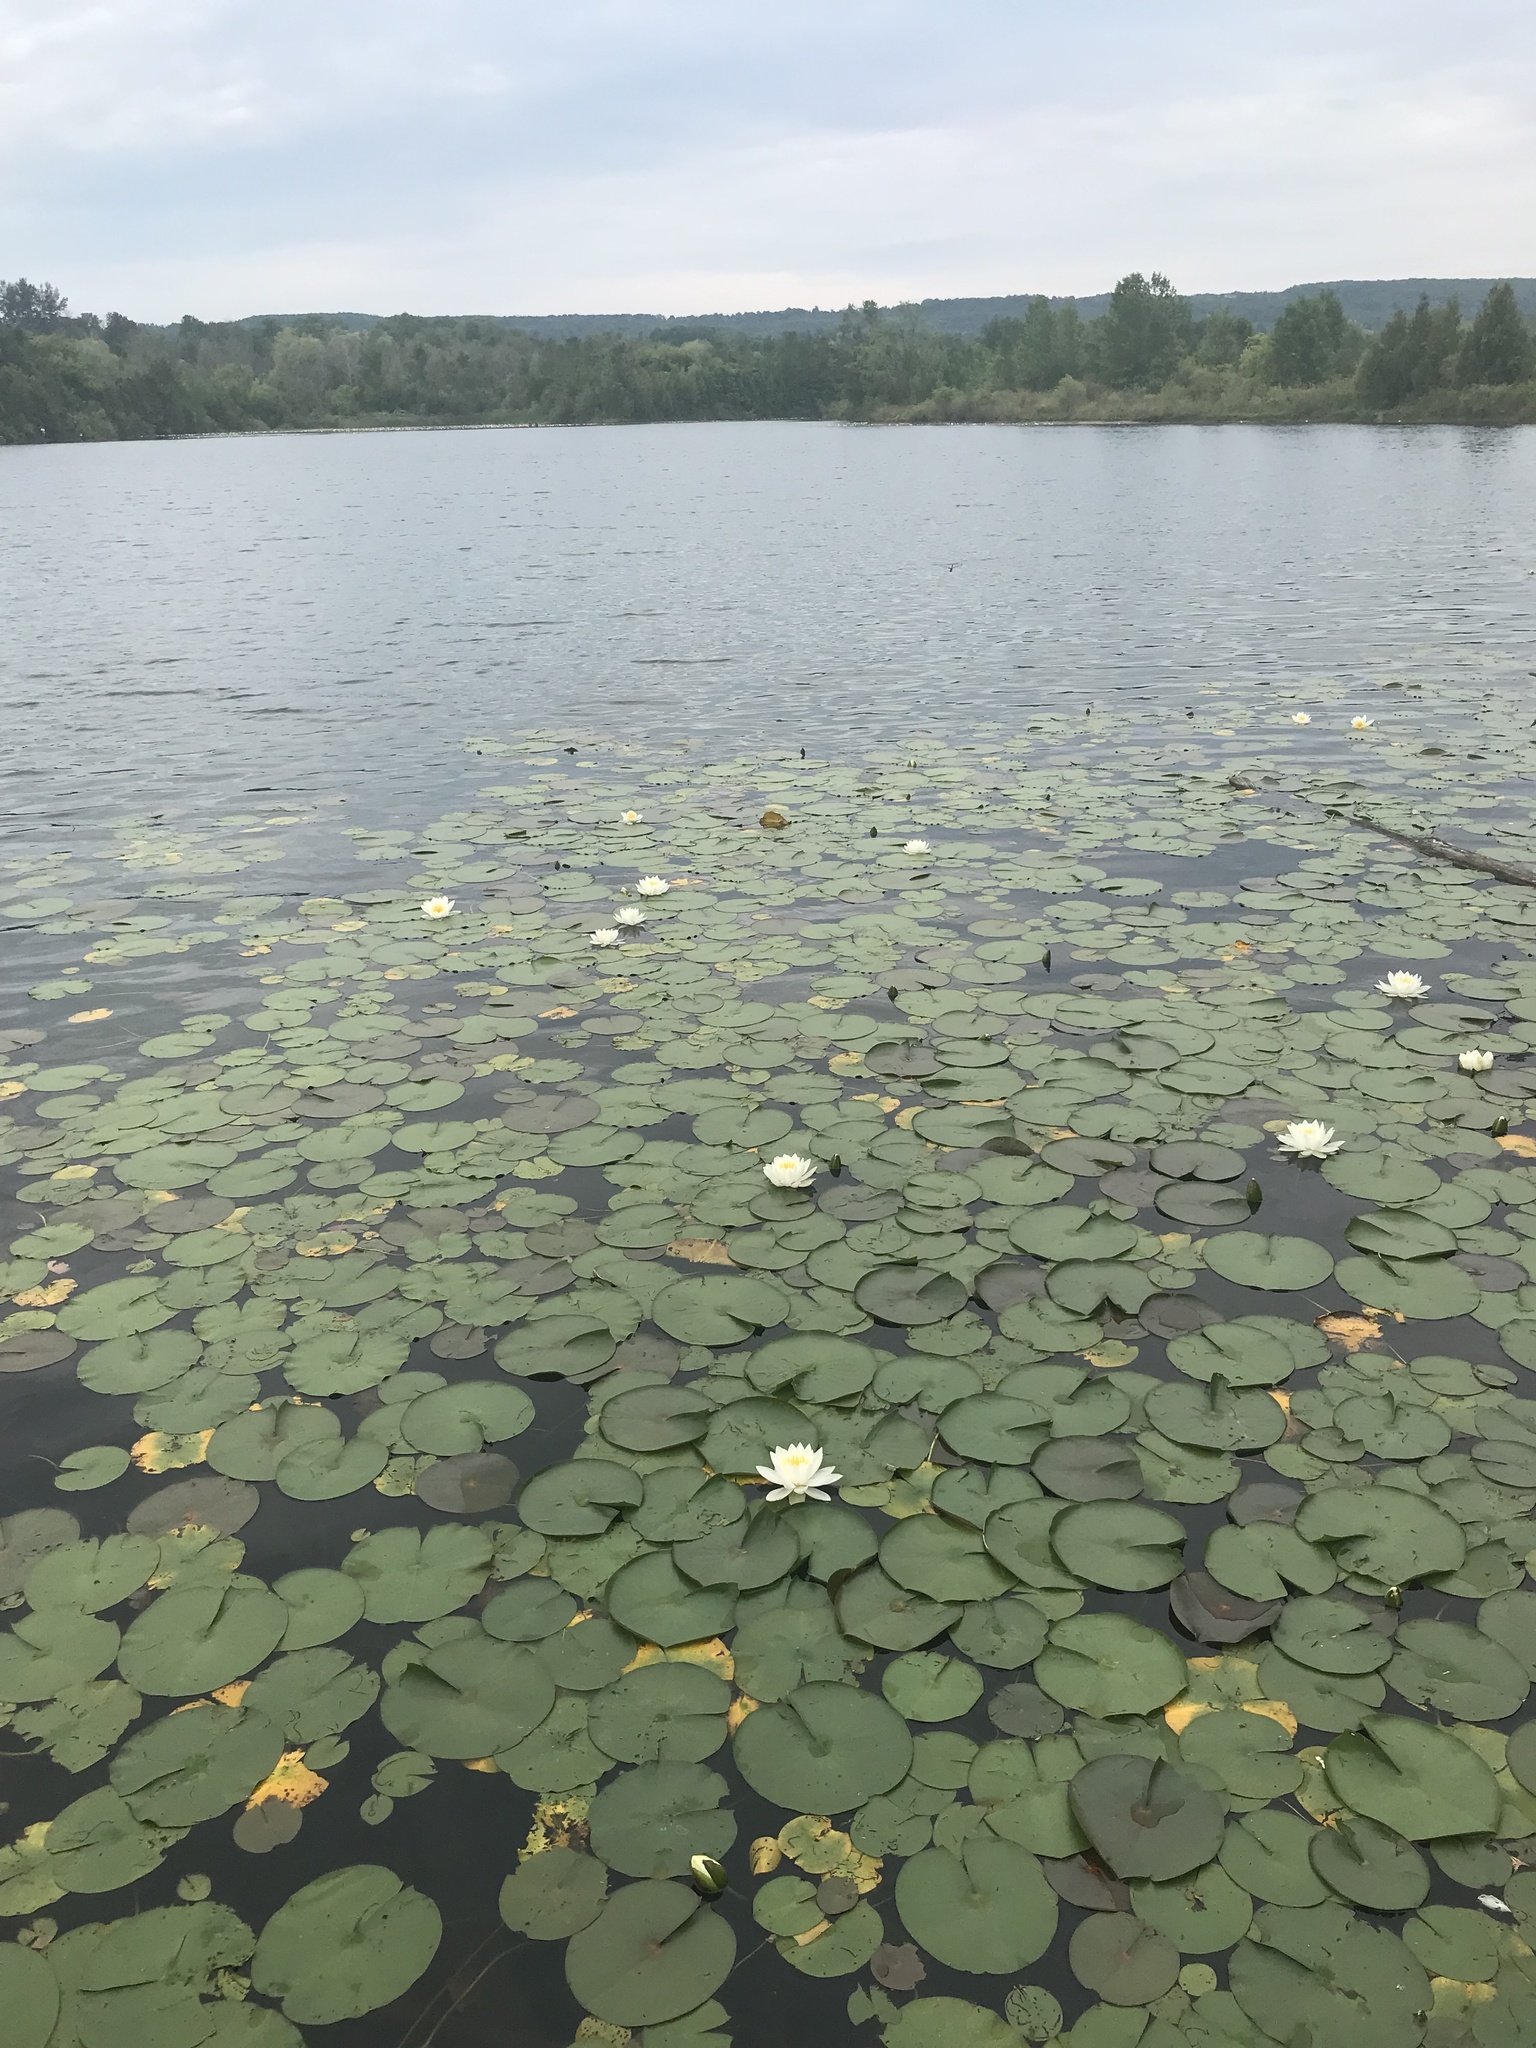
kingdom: Plantae
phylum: Tracheophyta
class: Magnoliopsida
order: Nymphaeales
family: Nymphaeaceae
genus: Nymphaea
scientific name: Nymphaea odorata
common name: Fragrant water-lily
